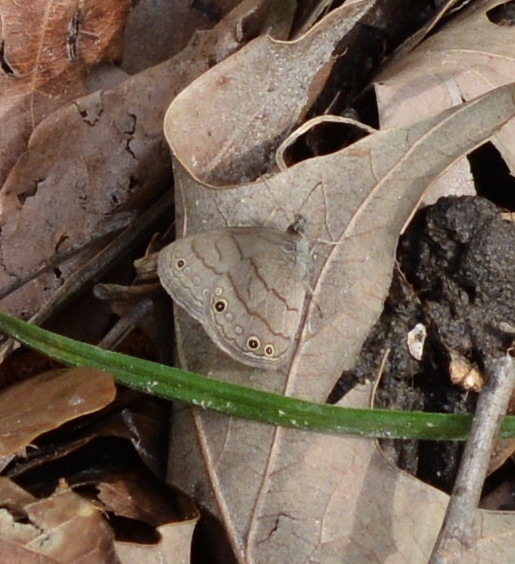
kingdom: Animalia
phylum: Arthropoda
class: Insecta
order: Lepidoptera
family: Nymphalidae
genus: Hermeuptychia
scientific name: Hermeuptychia intricata
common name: Intricate satyr
